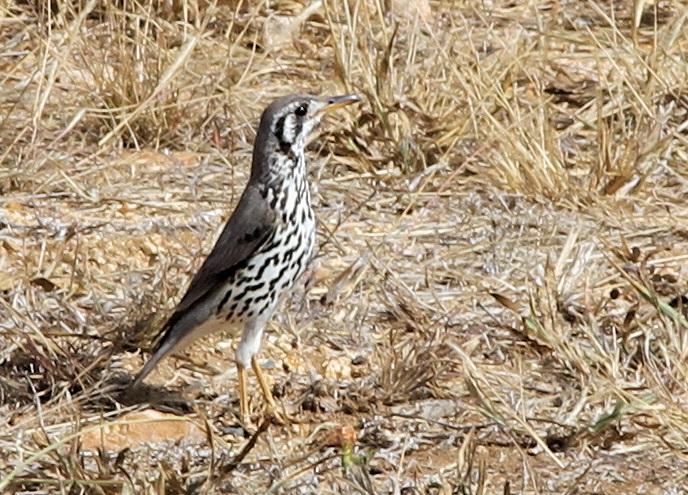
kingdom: Animalia
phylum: Chordata
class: Aves
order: Passeriformes
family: Turdidae
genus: Psophocichla
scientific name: Psophocichla litsitsirupa
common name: Groundscraper thrush
